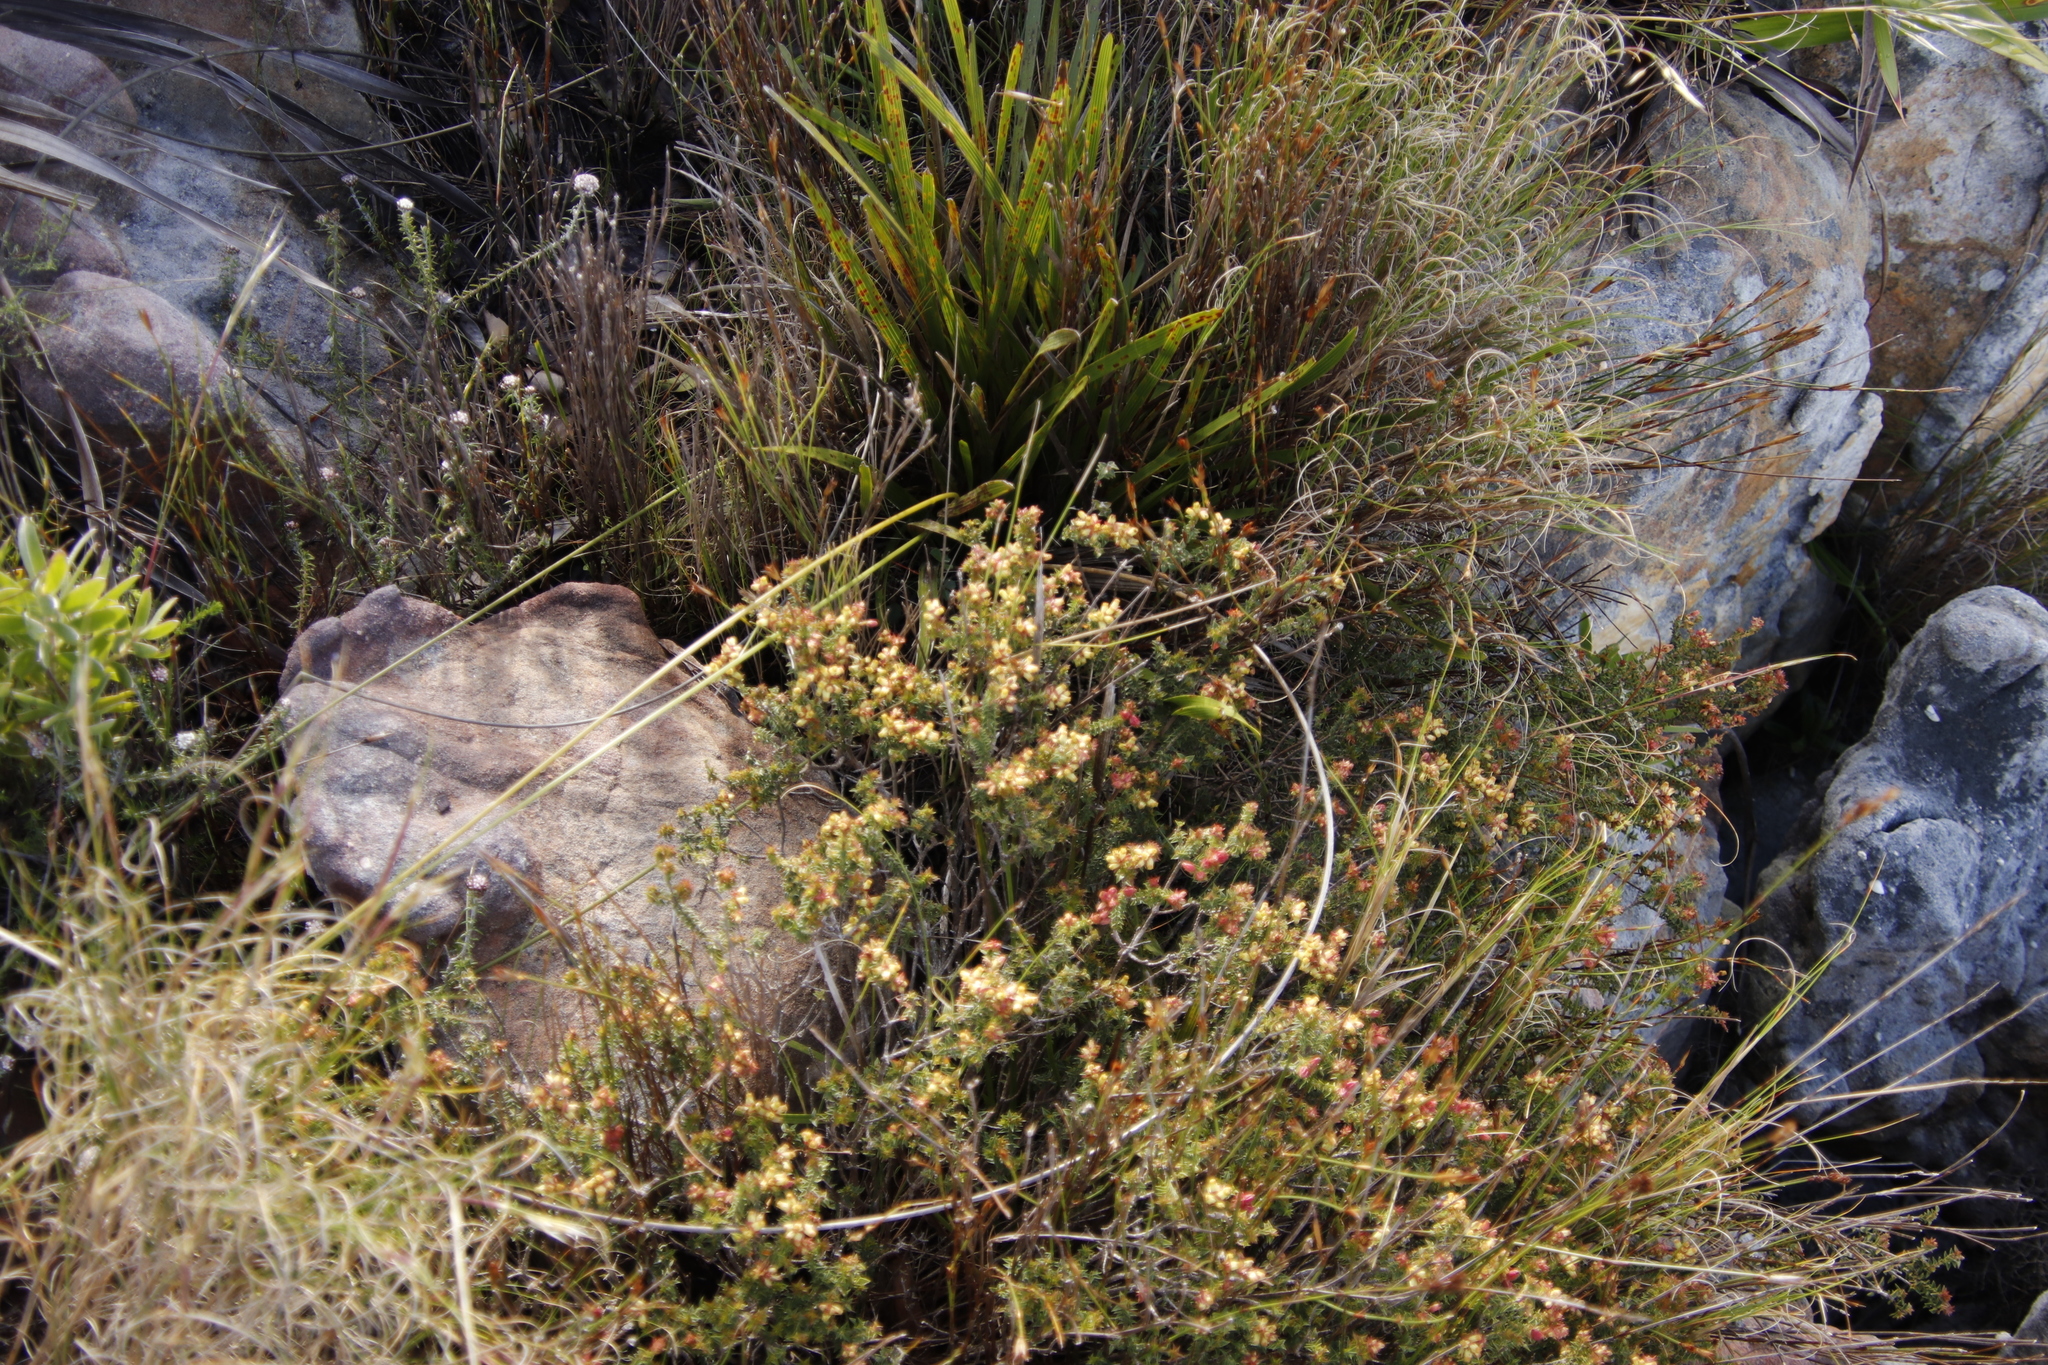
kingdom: Plantae
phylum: Tracheophyta
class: Magnoliopsida
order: Myrtales
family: Penaeaceae
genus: Penaea
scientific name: Penaea mucronata
